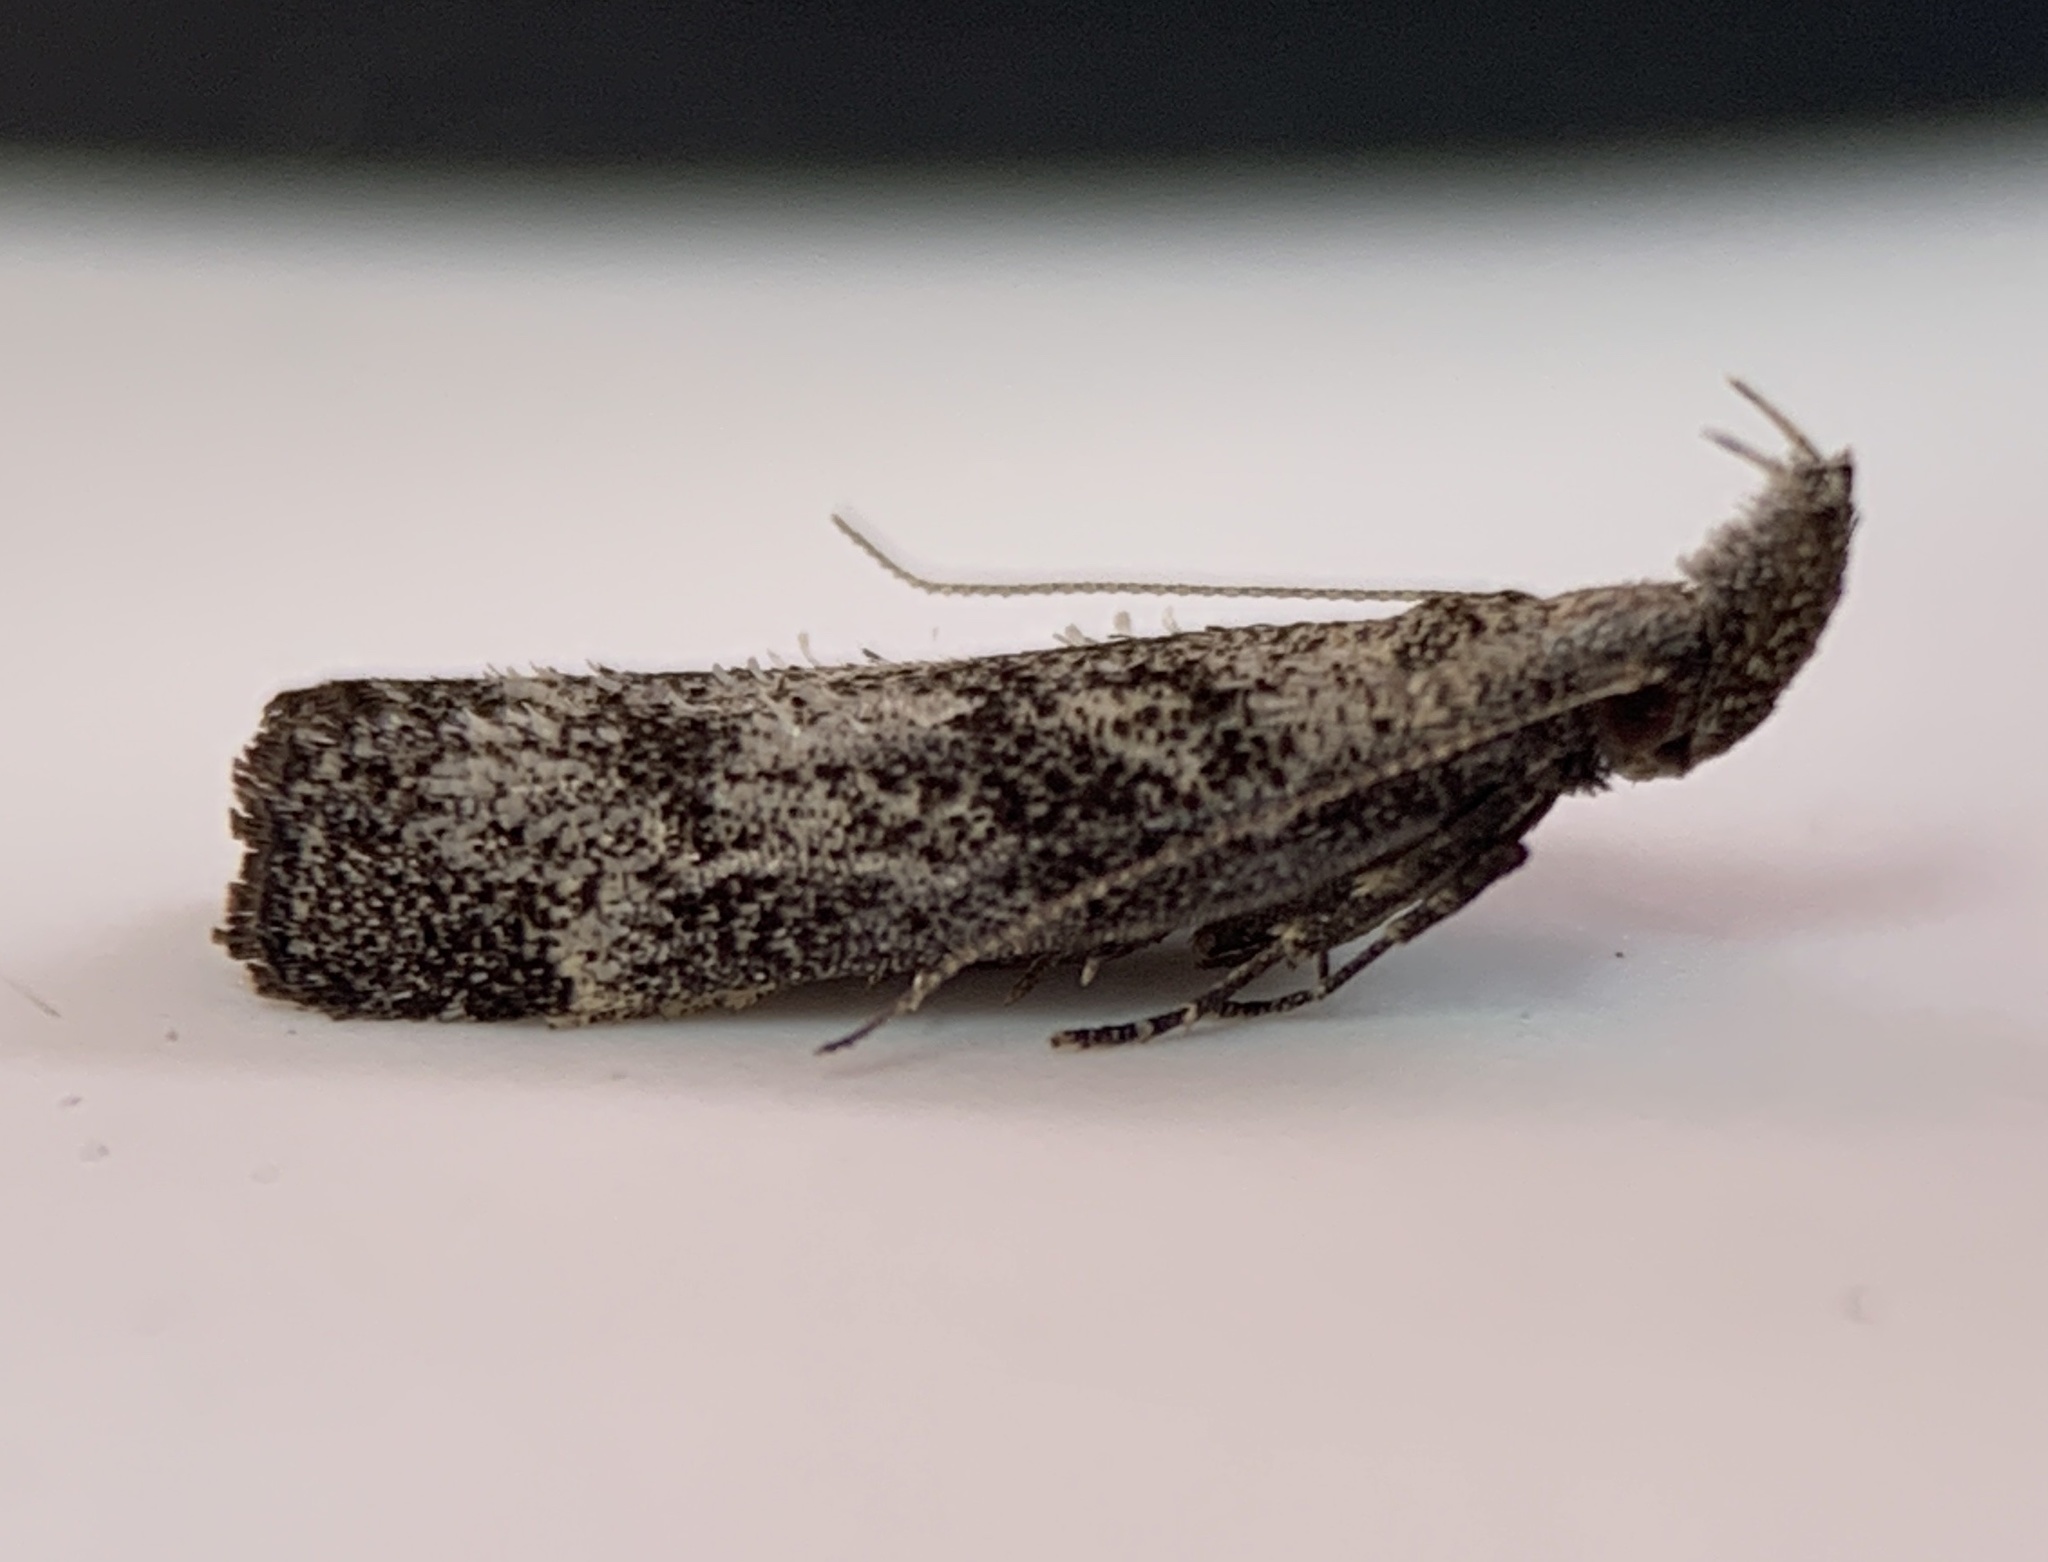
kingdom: Animalia
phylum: Arthropoda
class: Insecta
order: Lepidoptera
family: Gelechiidae
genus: Dichomeris
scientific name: Dichomeris inversella
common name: Inverse dichomeris moth
